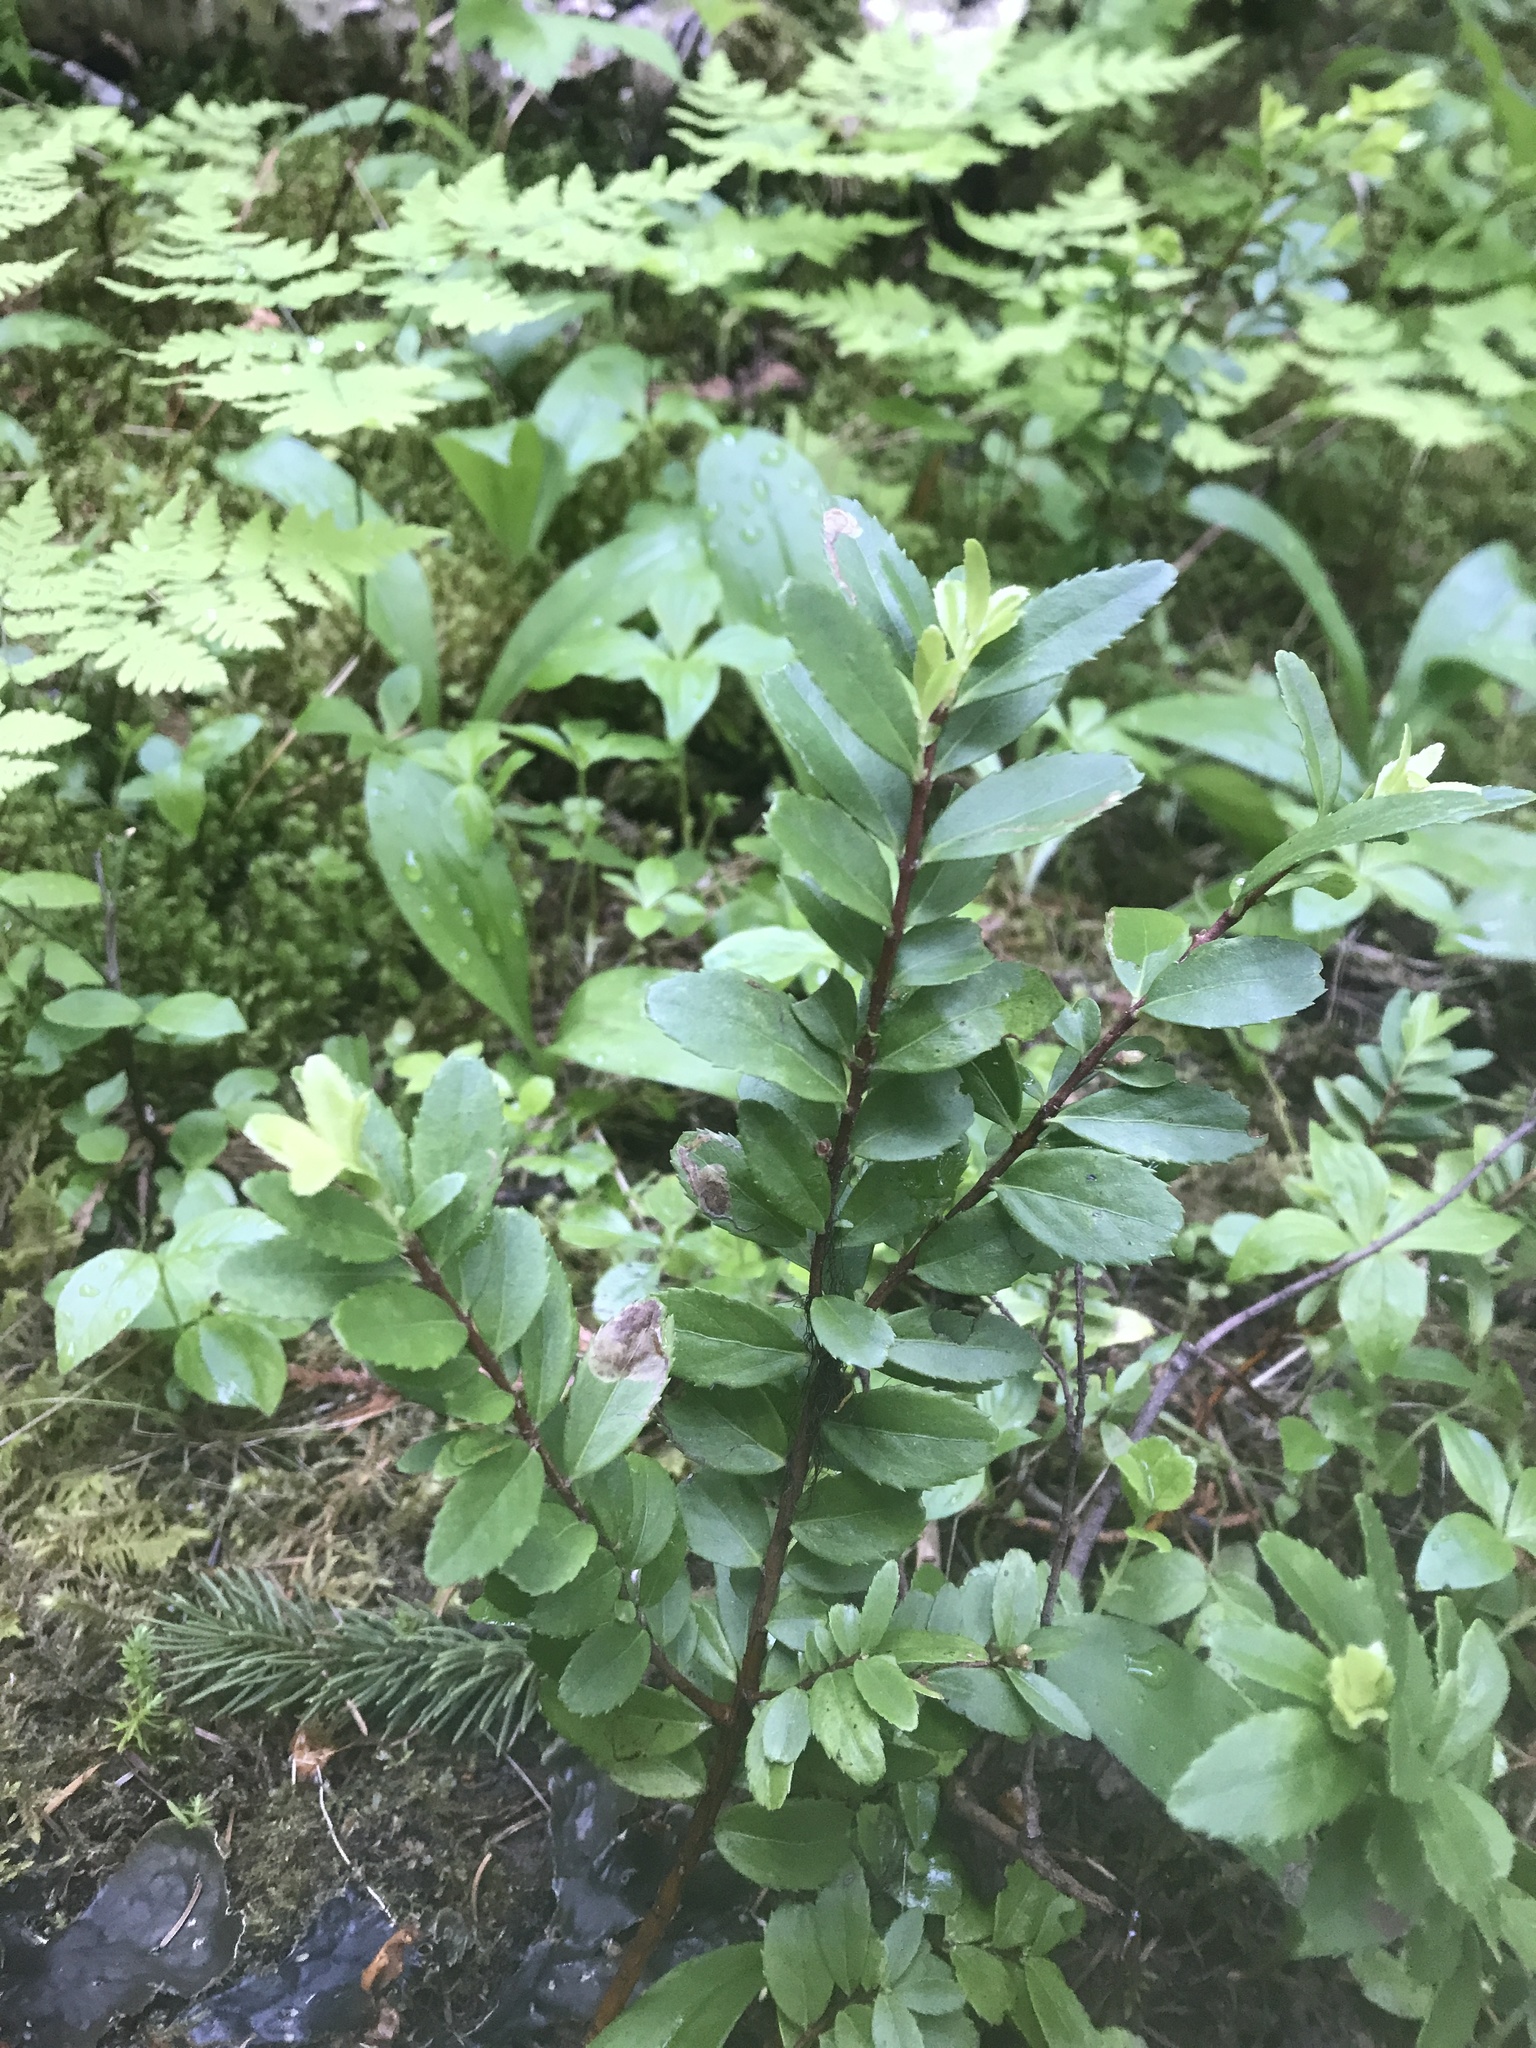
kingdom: Plantae
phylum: Tracheophyta
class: Magnoliopsida
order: Celastrales
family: Celastraceae
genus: Paxistima
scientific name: Paxistima myrsinites
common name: Mountain-lover
